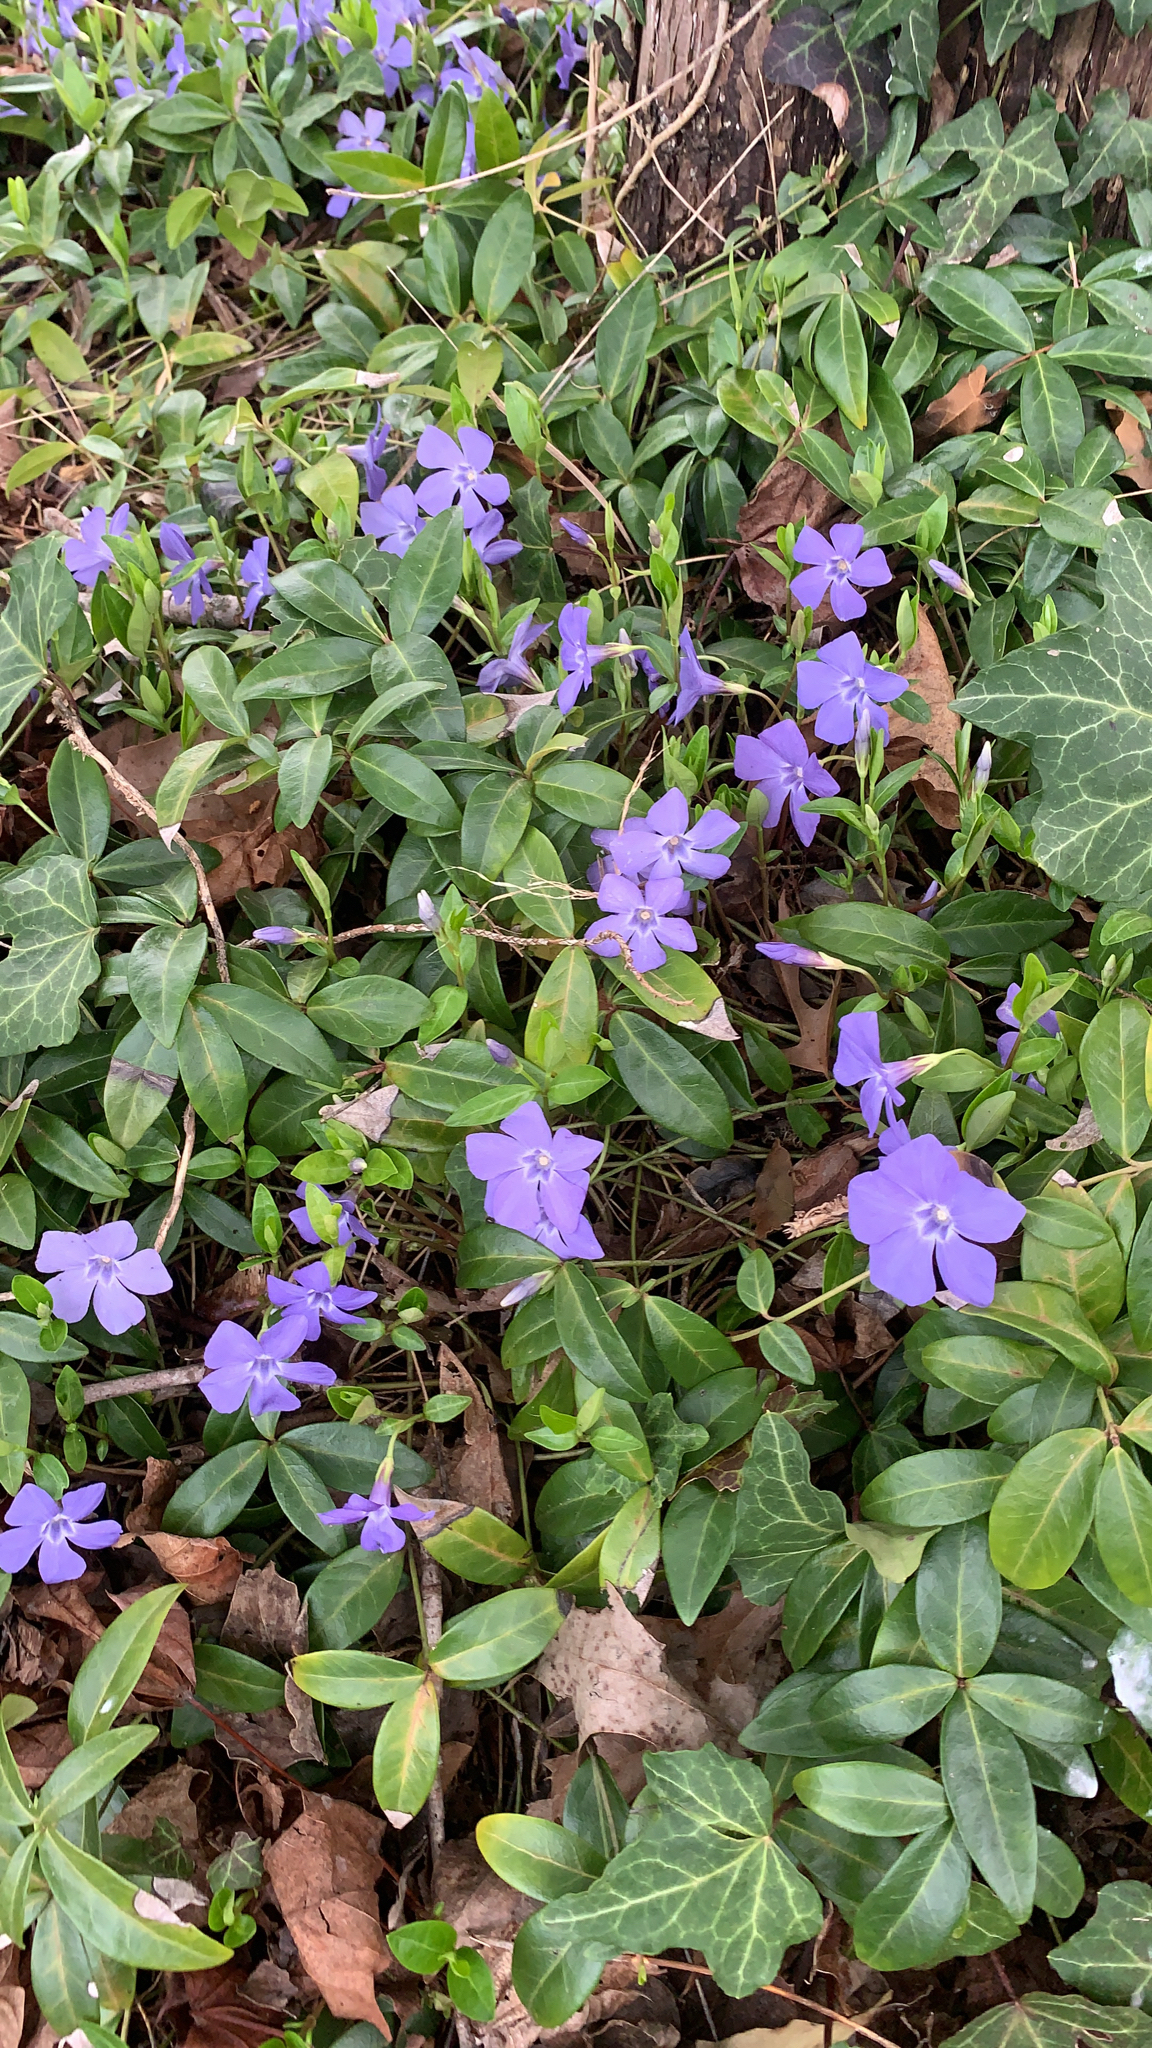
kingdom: Plantae
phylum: Tracheophyta
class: Magnoliopsida
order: Gentianales
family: Apocynaceae
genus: Vinca
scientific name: Vinca minor
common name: Lesser periwinkle
